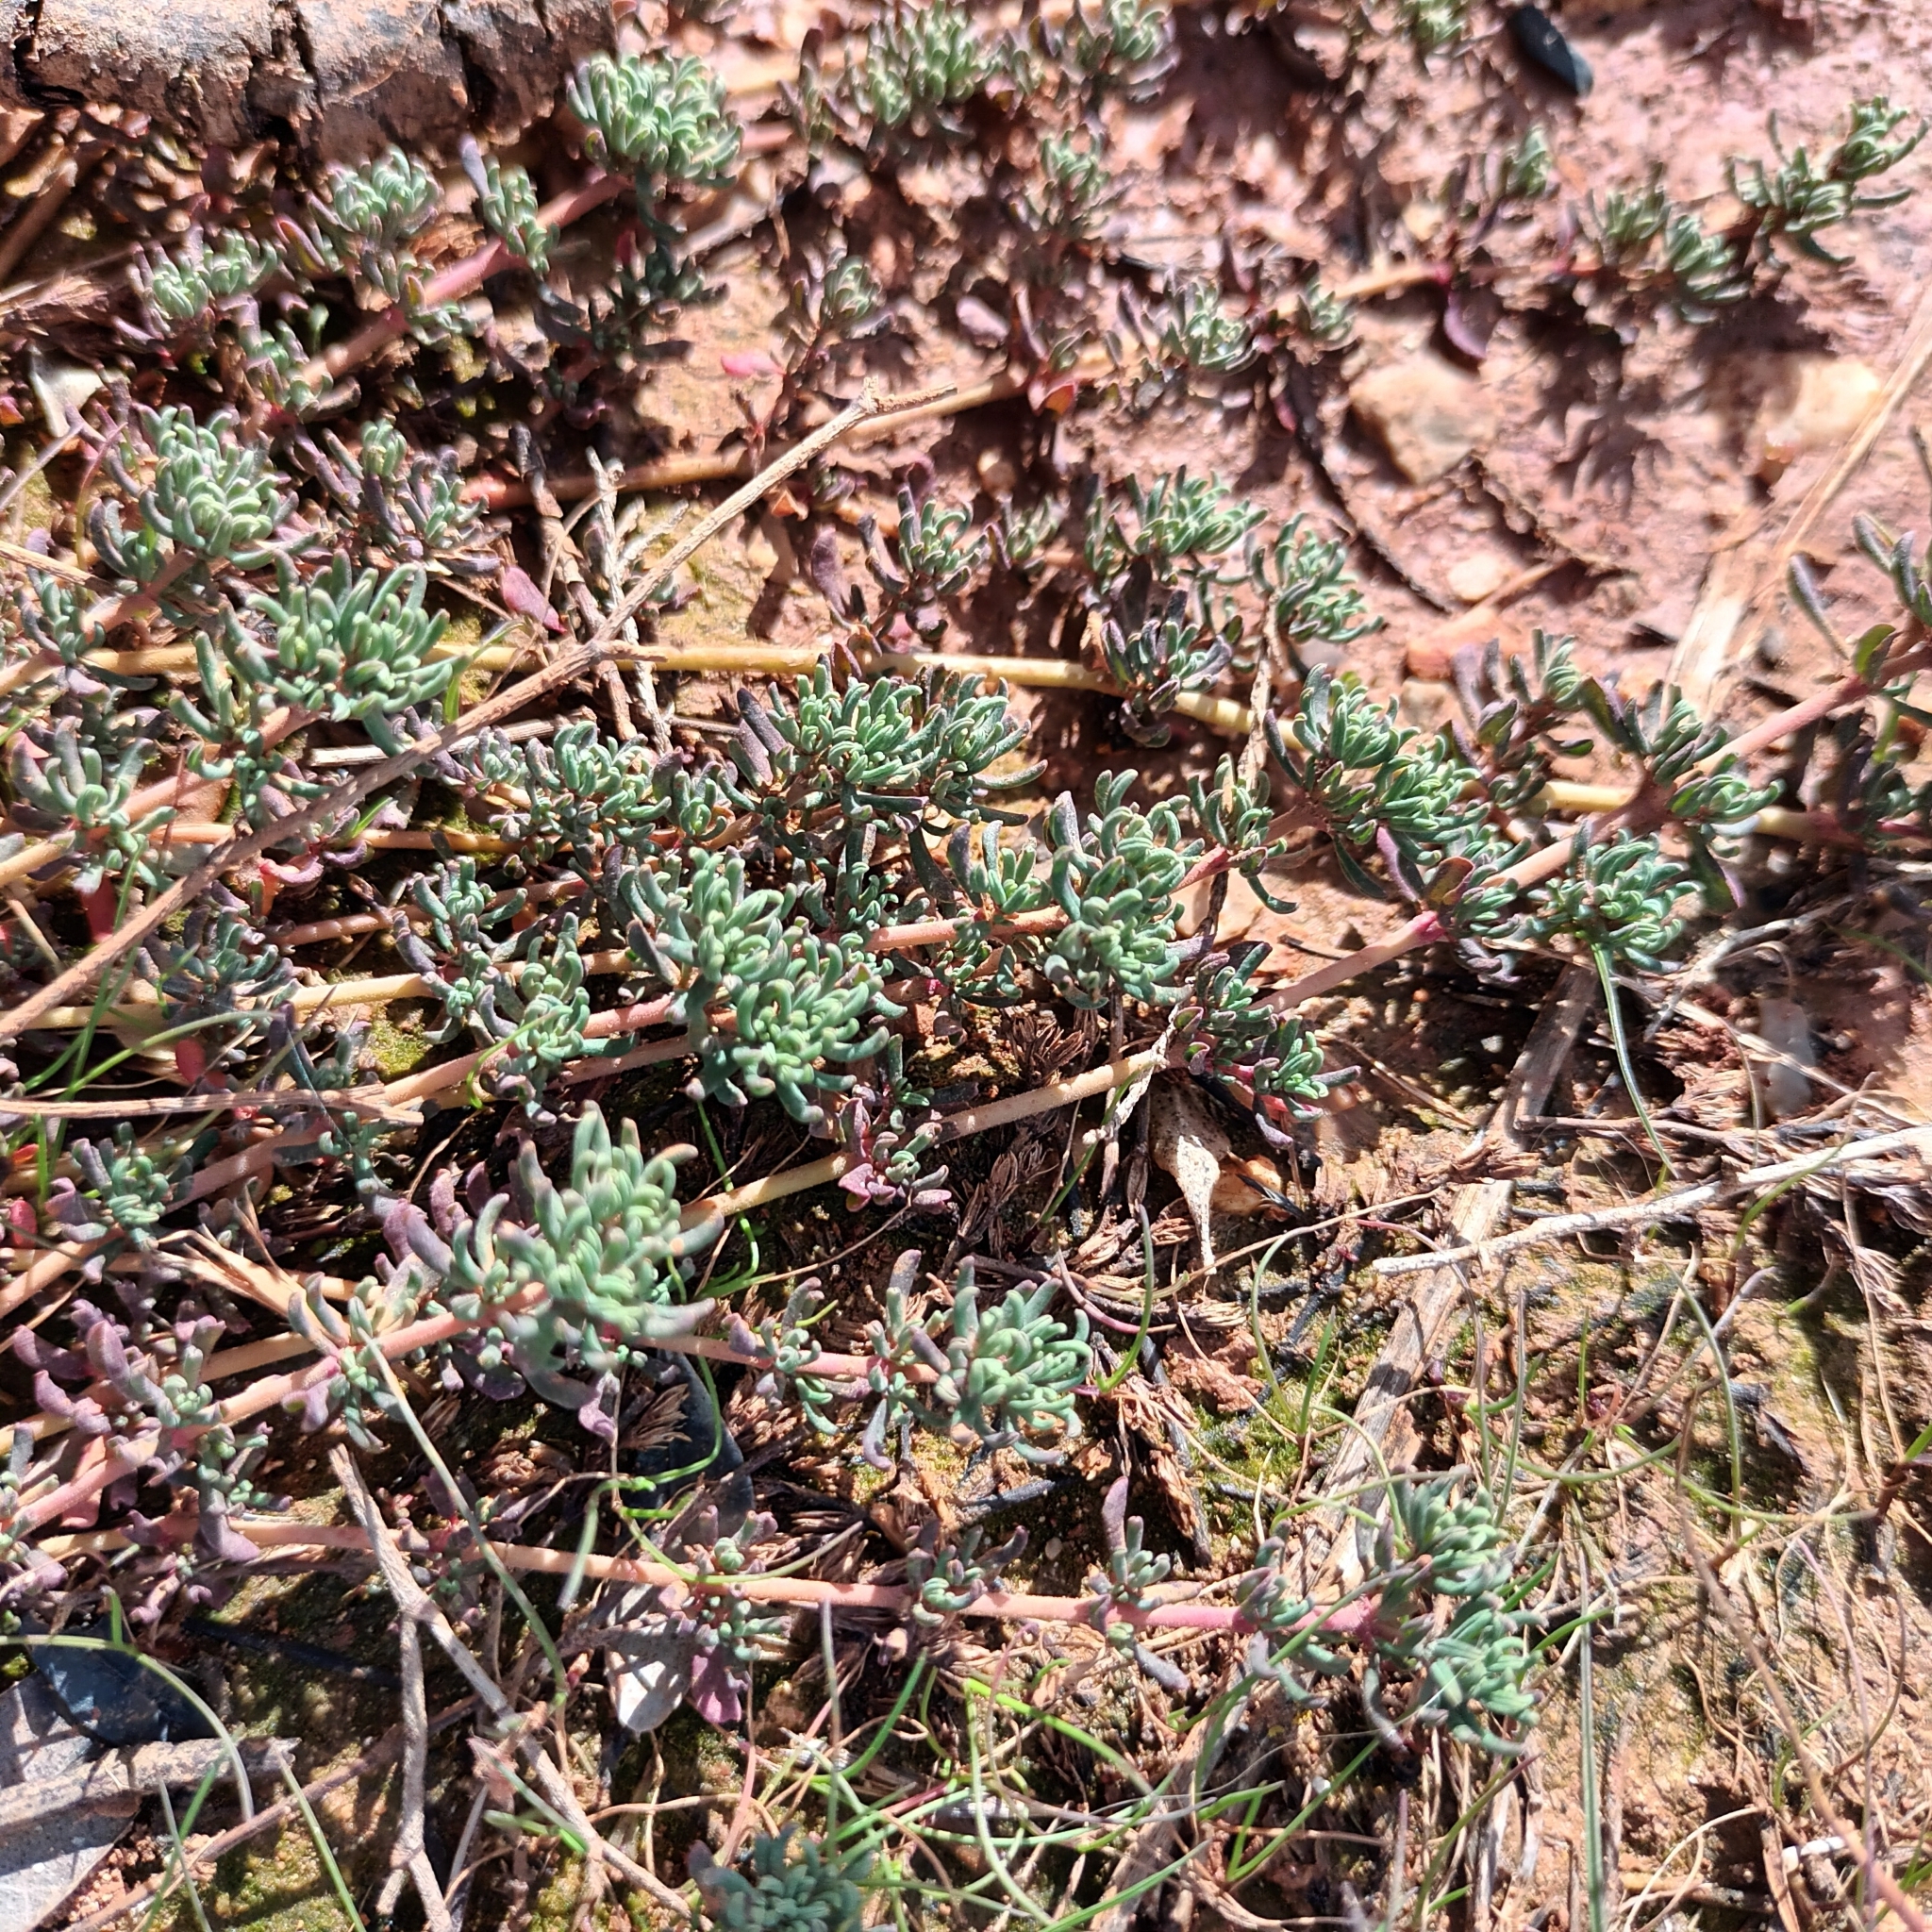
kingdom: Plantae
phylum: Tracheophyta
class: Magnoliopsida
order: Caryophyllales
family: Frankeniaceae
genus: Frankenia
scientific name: Frankenia hirsuta
